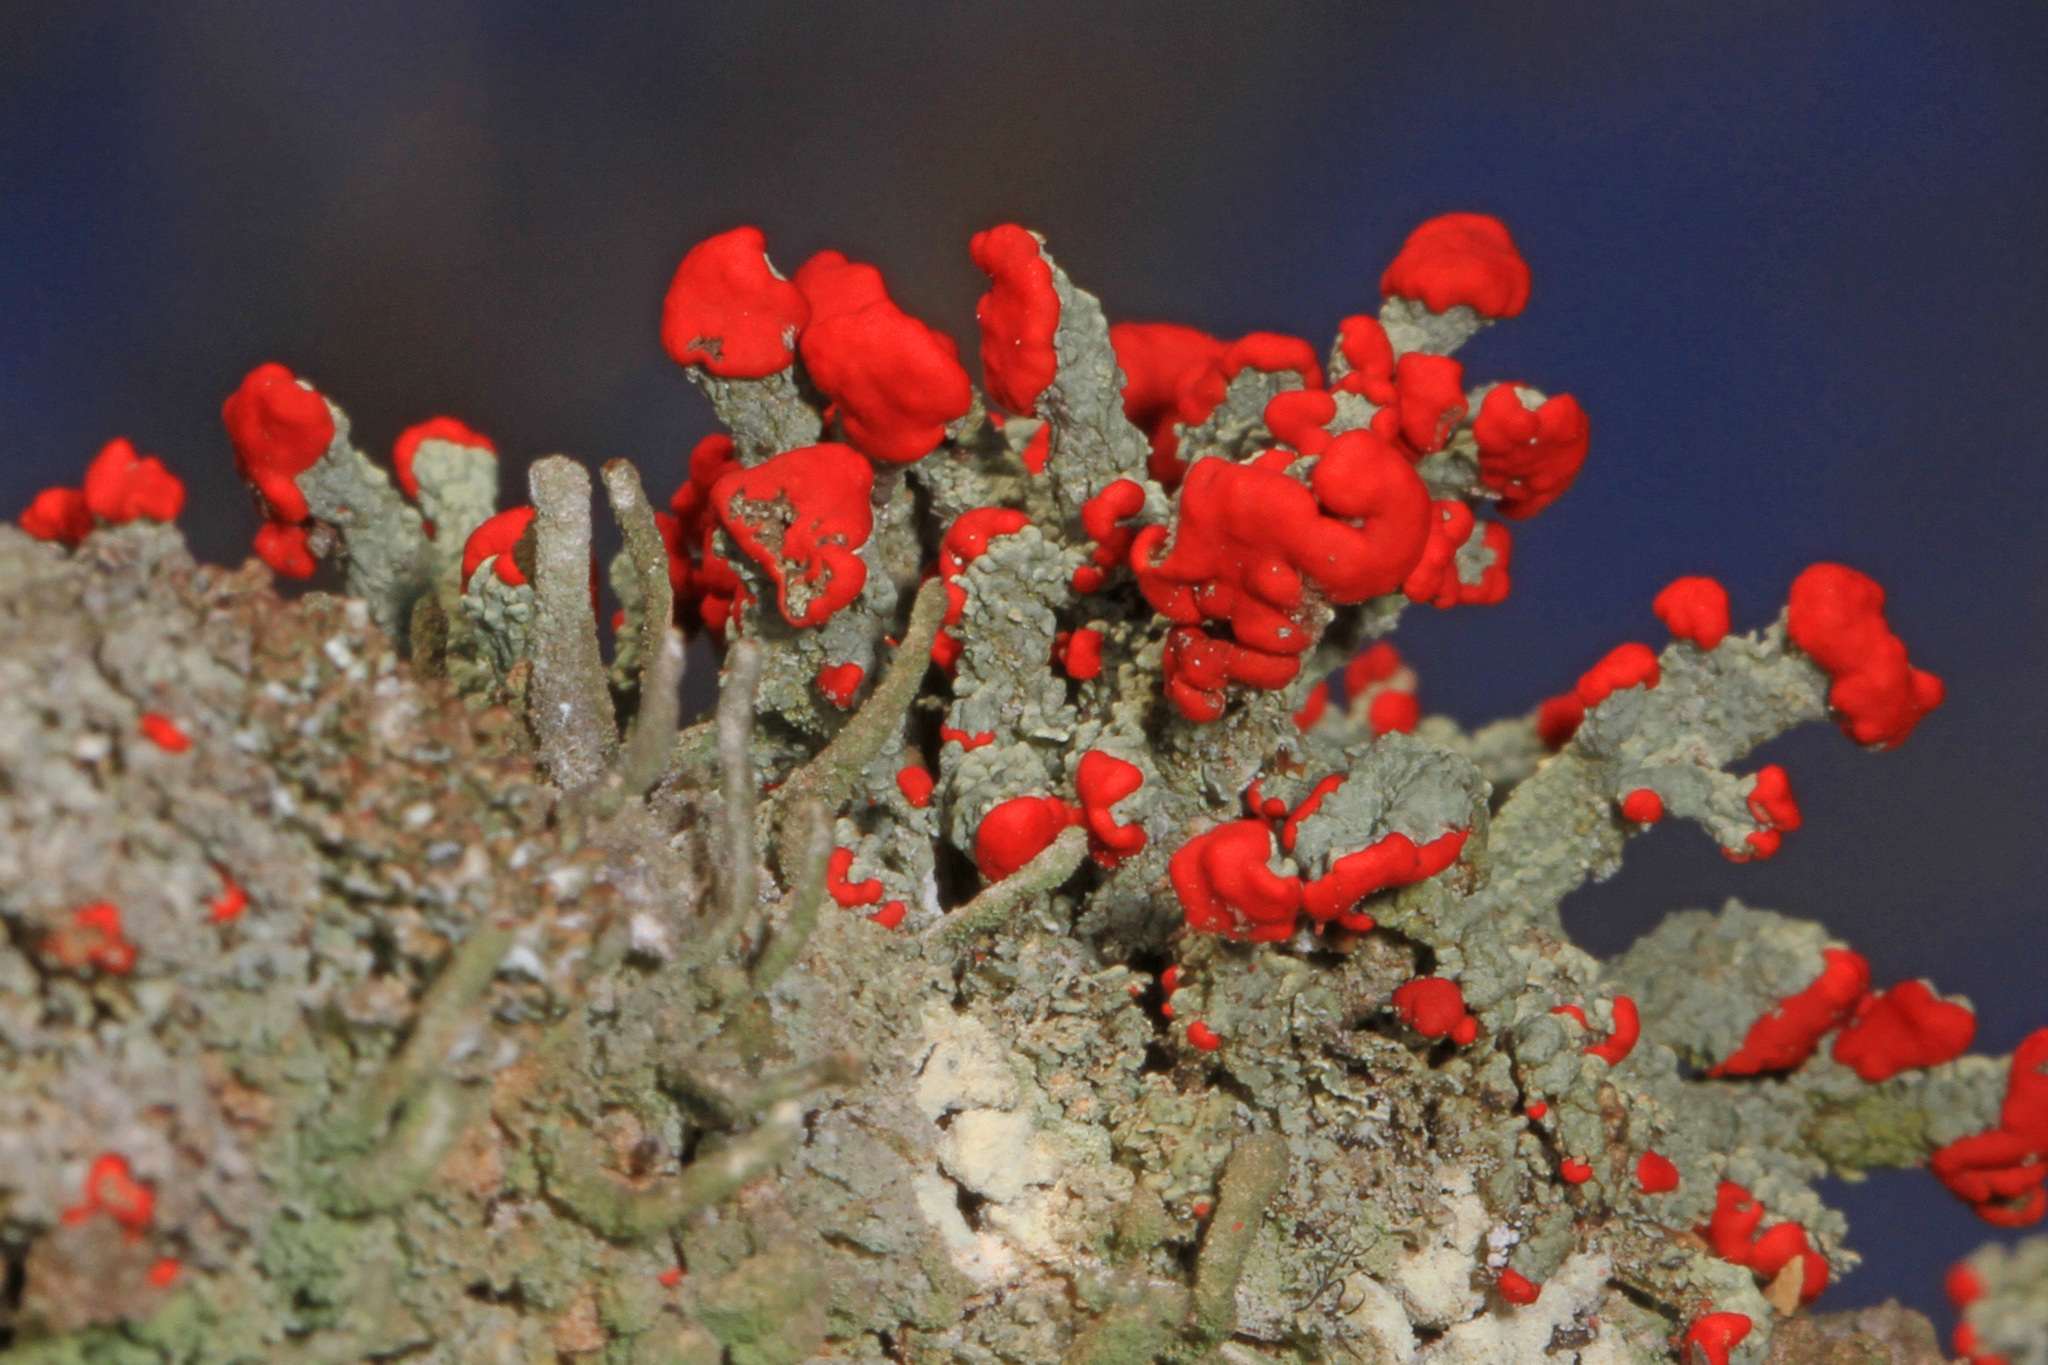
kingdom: Fungi
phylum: Ascomycota
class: Lecanoromycetes
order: Lecanorales
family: Cladoniaceae
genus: Cladonia
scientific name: Cladonia cristatella
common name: British soldier lichen
